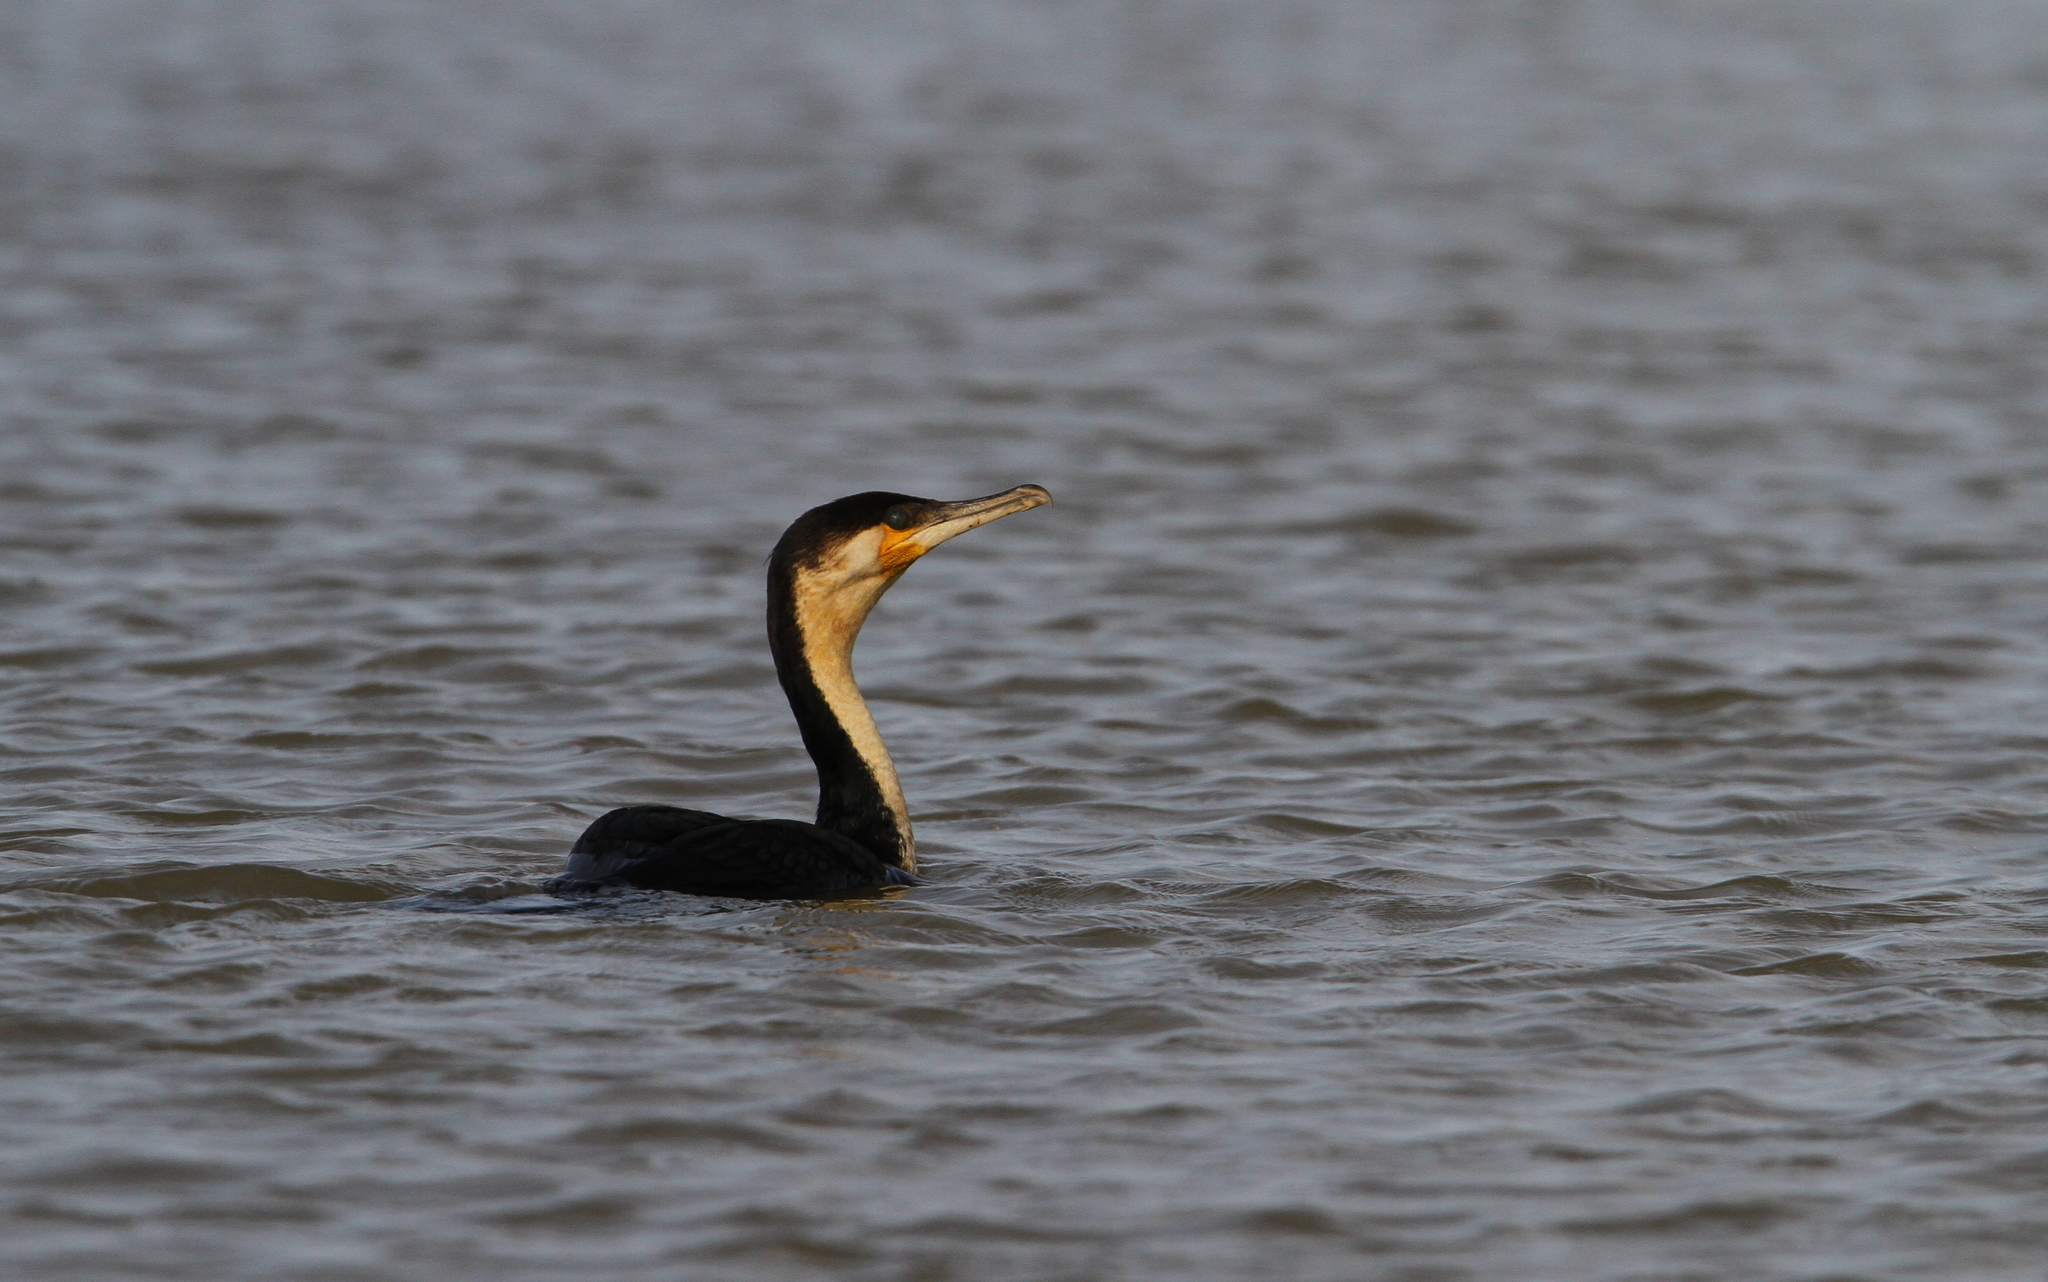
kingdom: Animalia
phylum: Chordata
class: Aves
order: Suliformes
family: Phalacrocoracidae
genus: Phalacrocorax
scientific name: Phalacrocorax carbo
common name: Great cormorant
